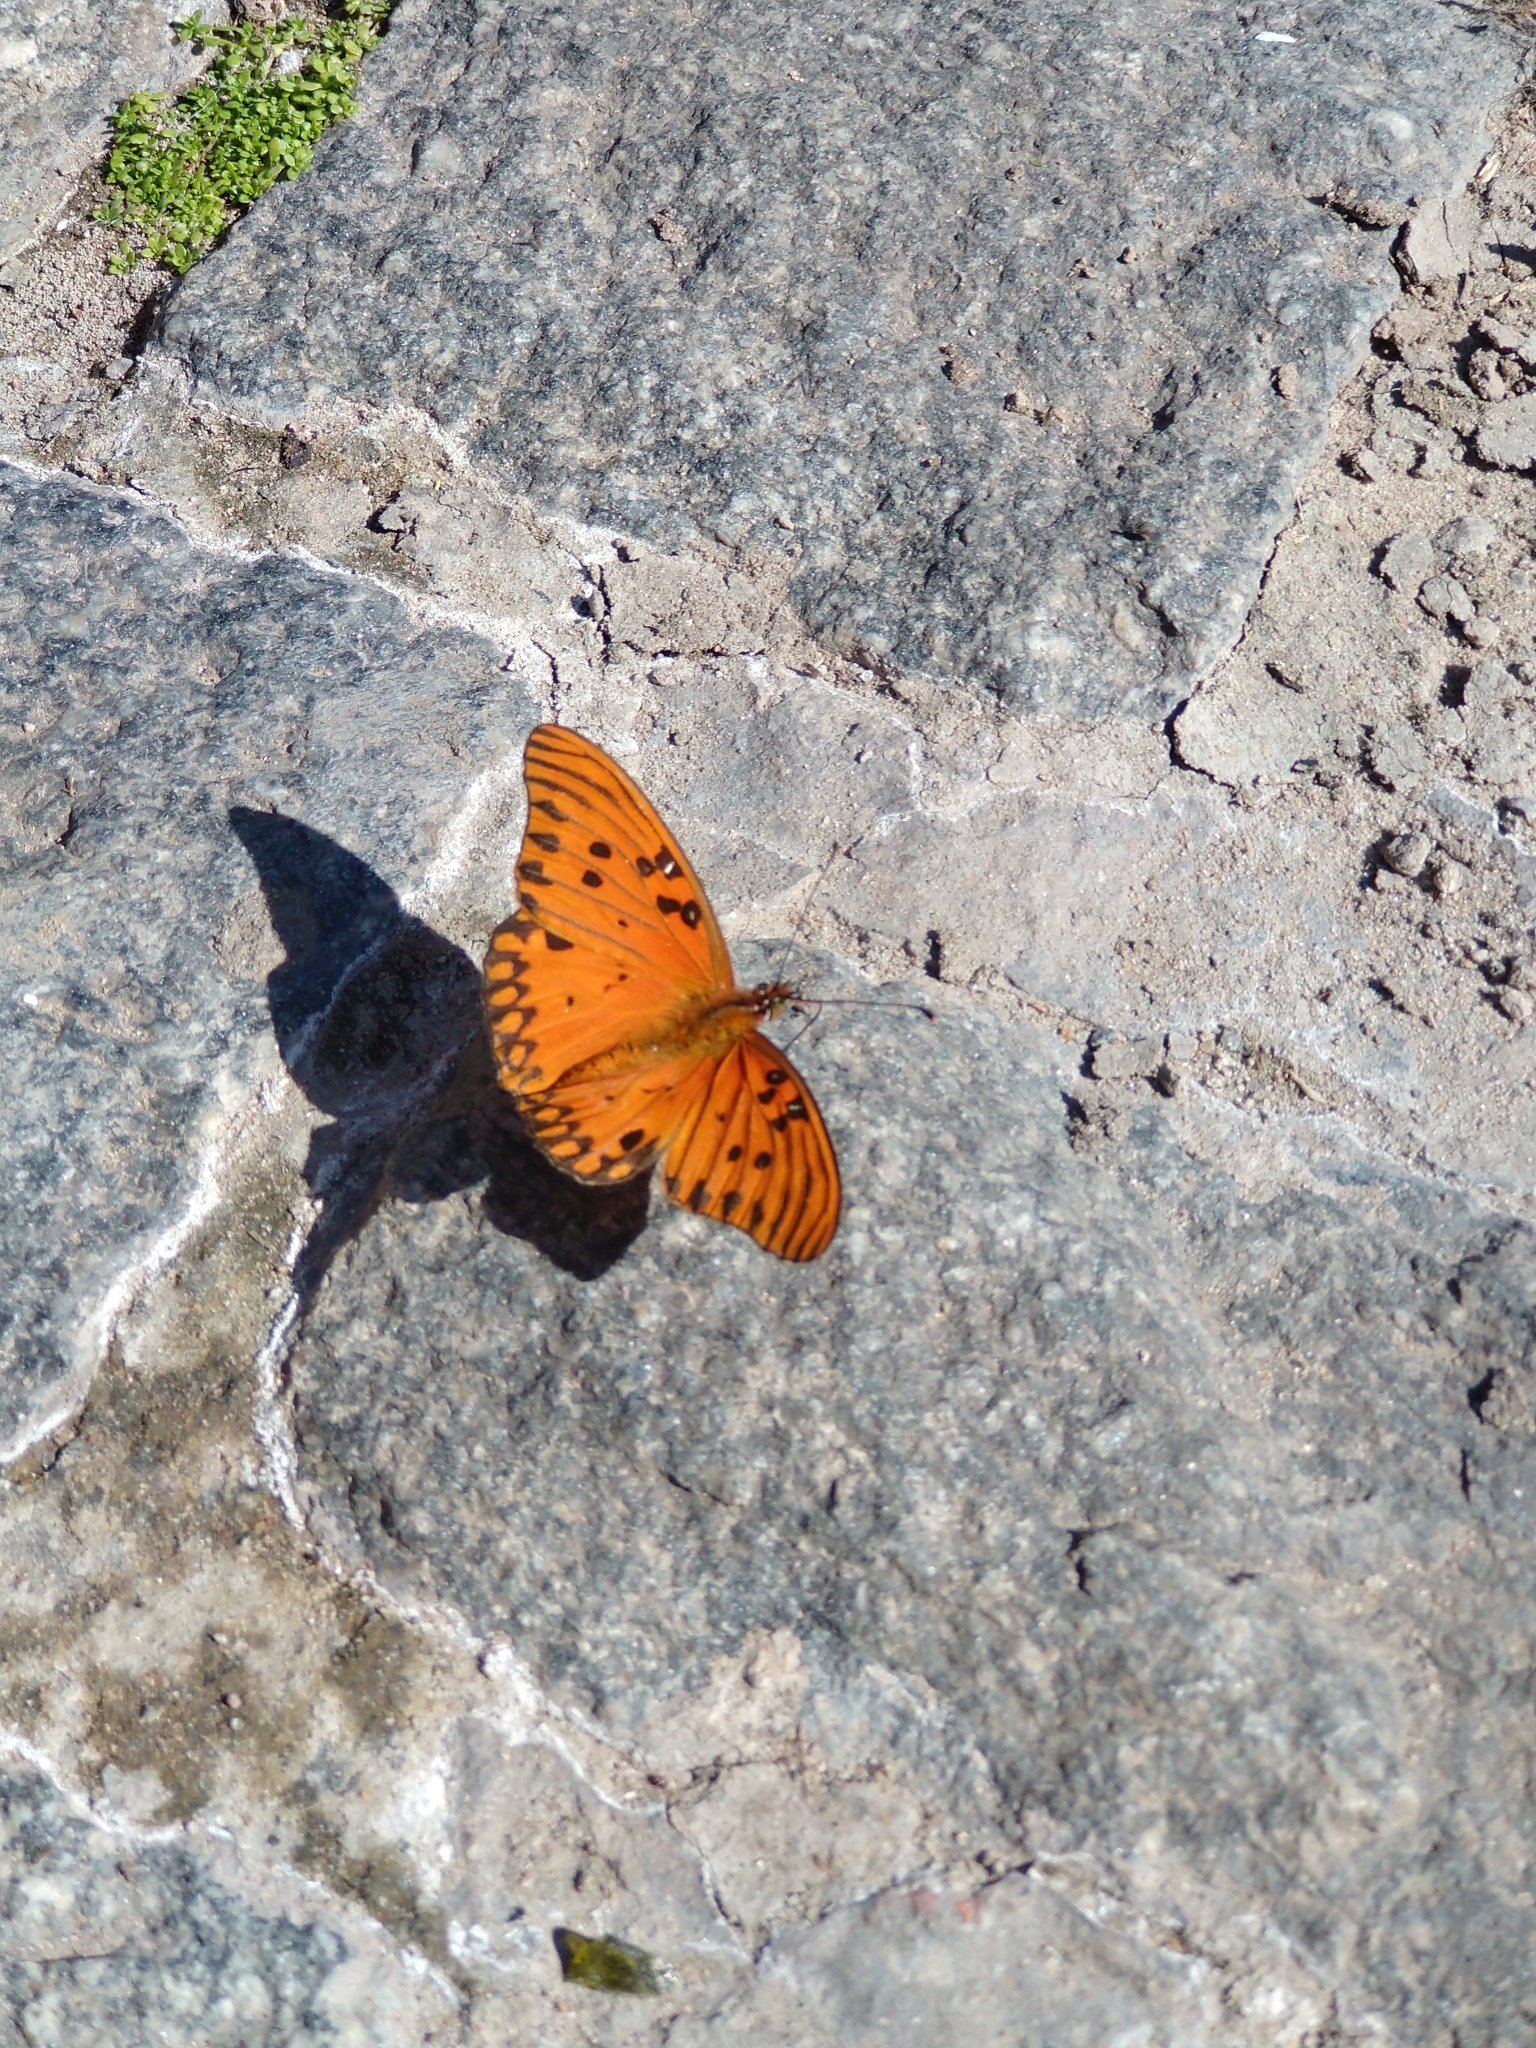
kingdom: Animalia
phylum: Arthropoda
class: Insecta
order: Lepidoptera
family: Nymphalidae
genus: Dione
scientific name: Dione vanillae
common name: Gulf fritillary
